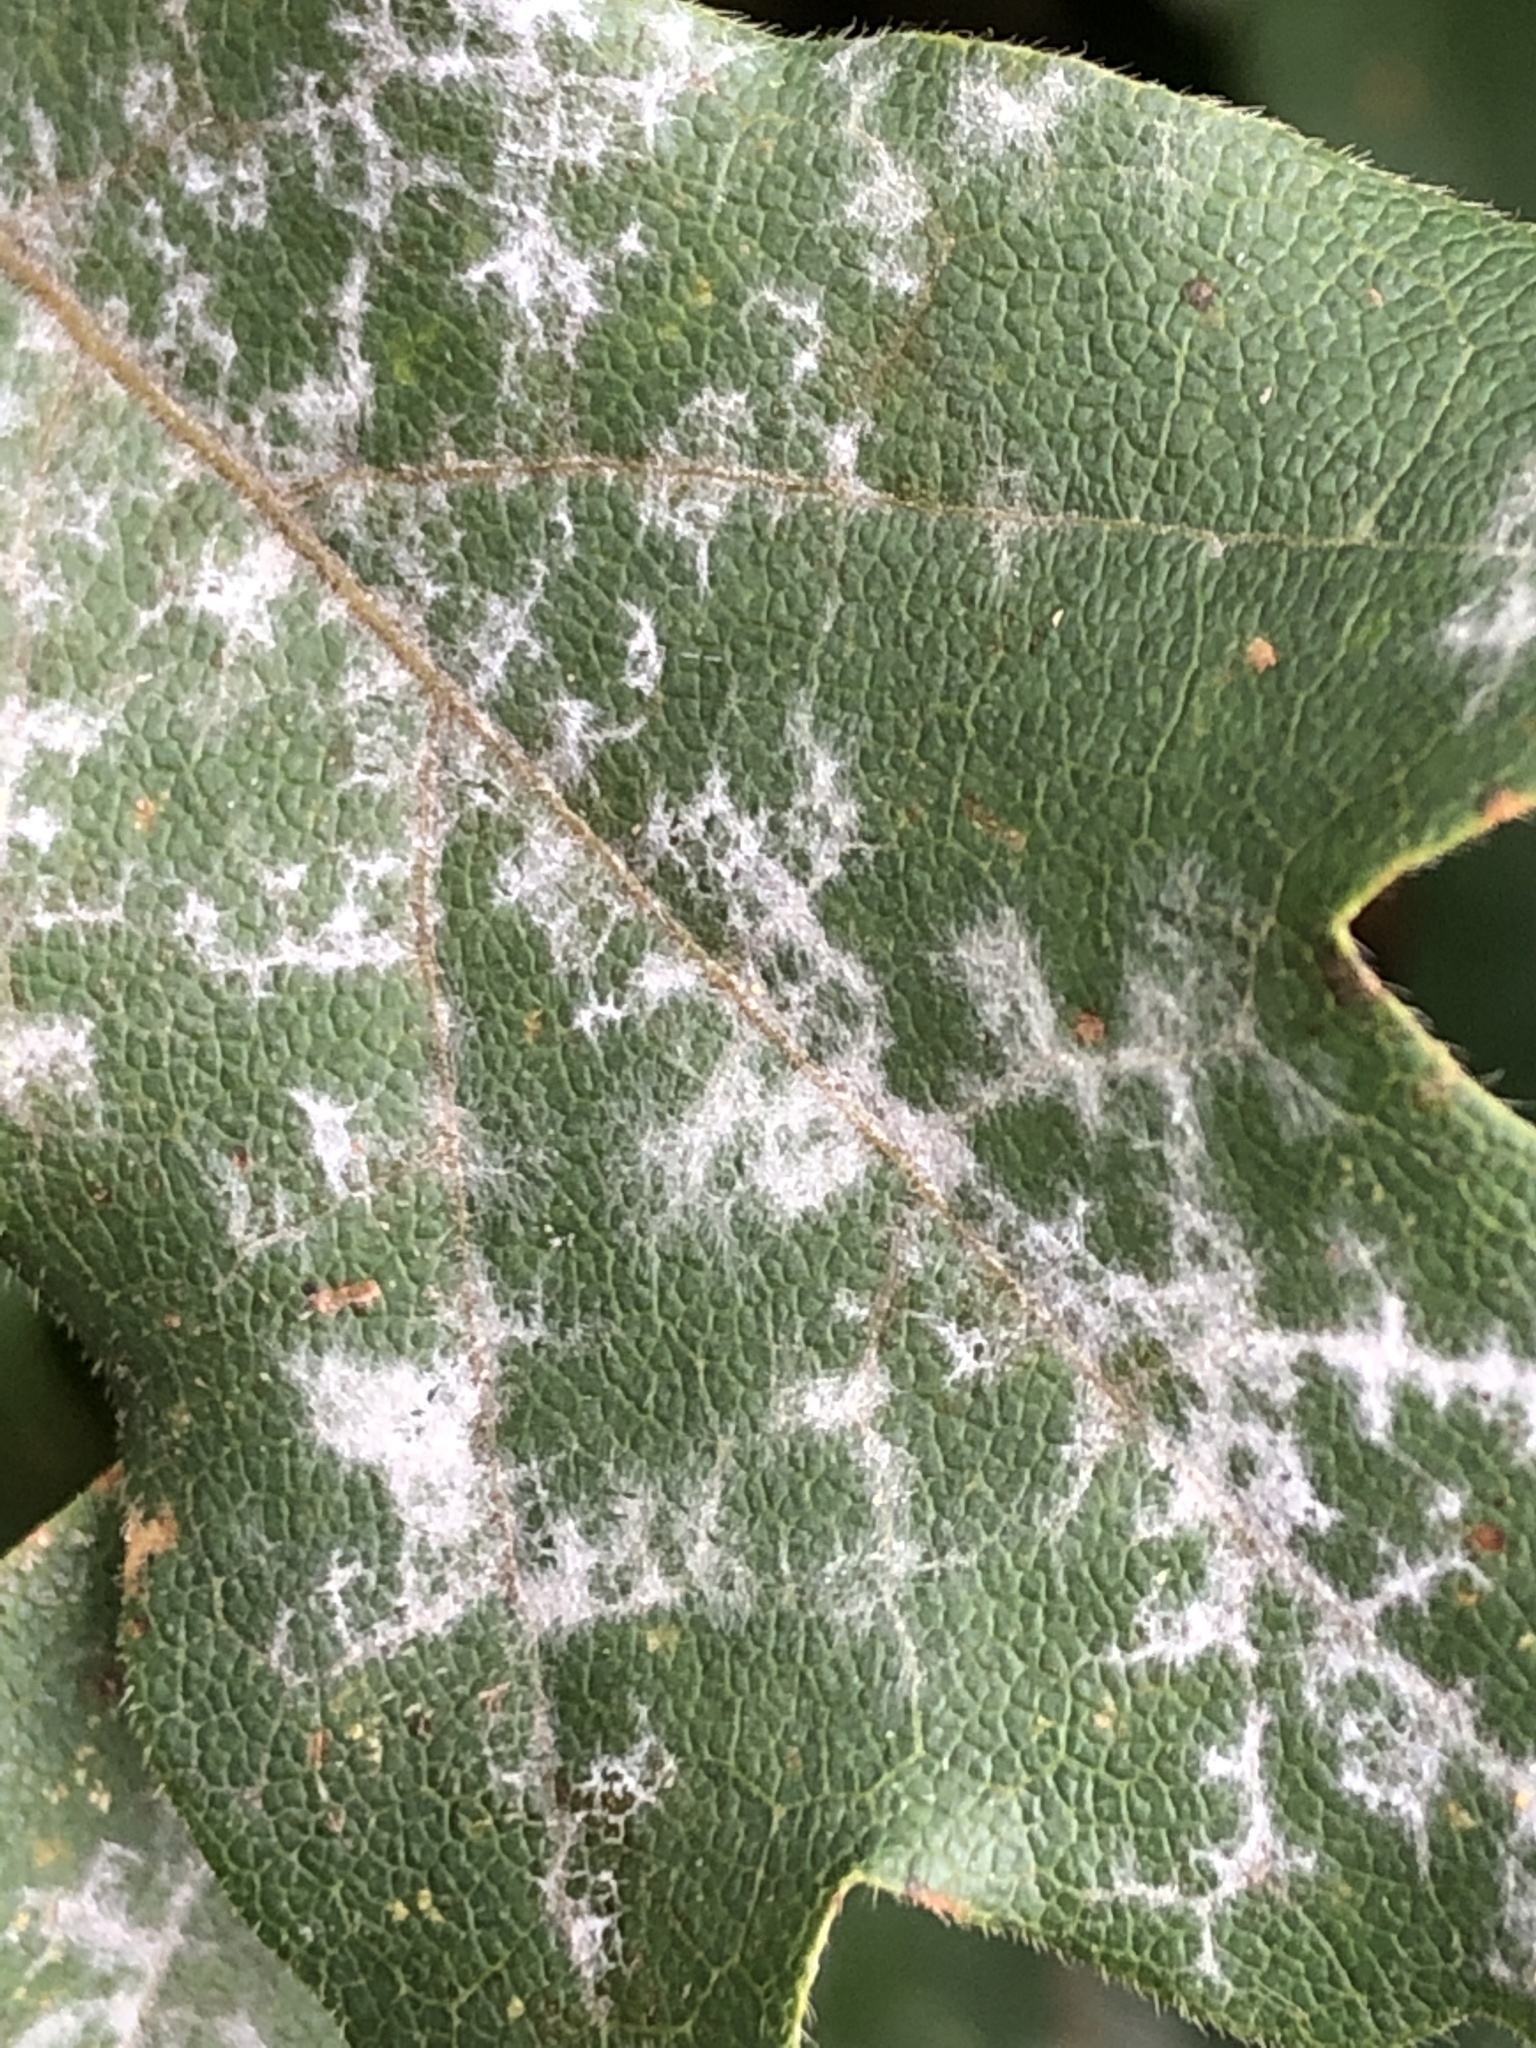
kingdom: Fungi
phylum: Ascomycota
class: Leotiomycetes
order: Helotiales
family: Erysiphaceae
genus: Sawadaea
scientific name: Sawadaea bicornis
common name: Maple mildew
